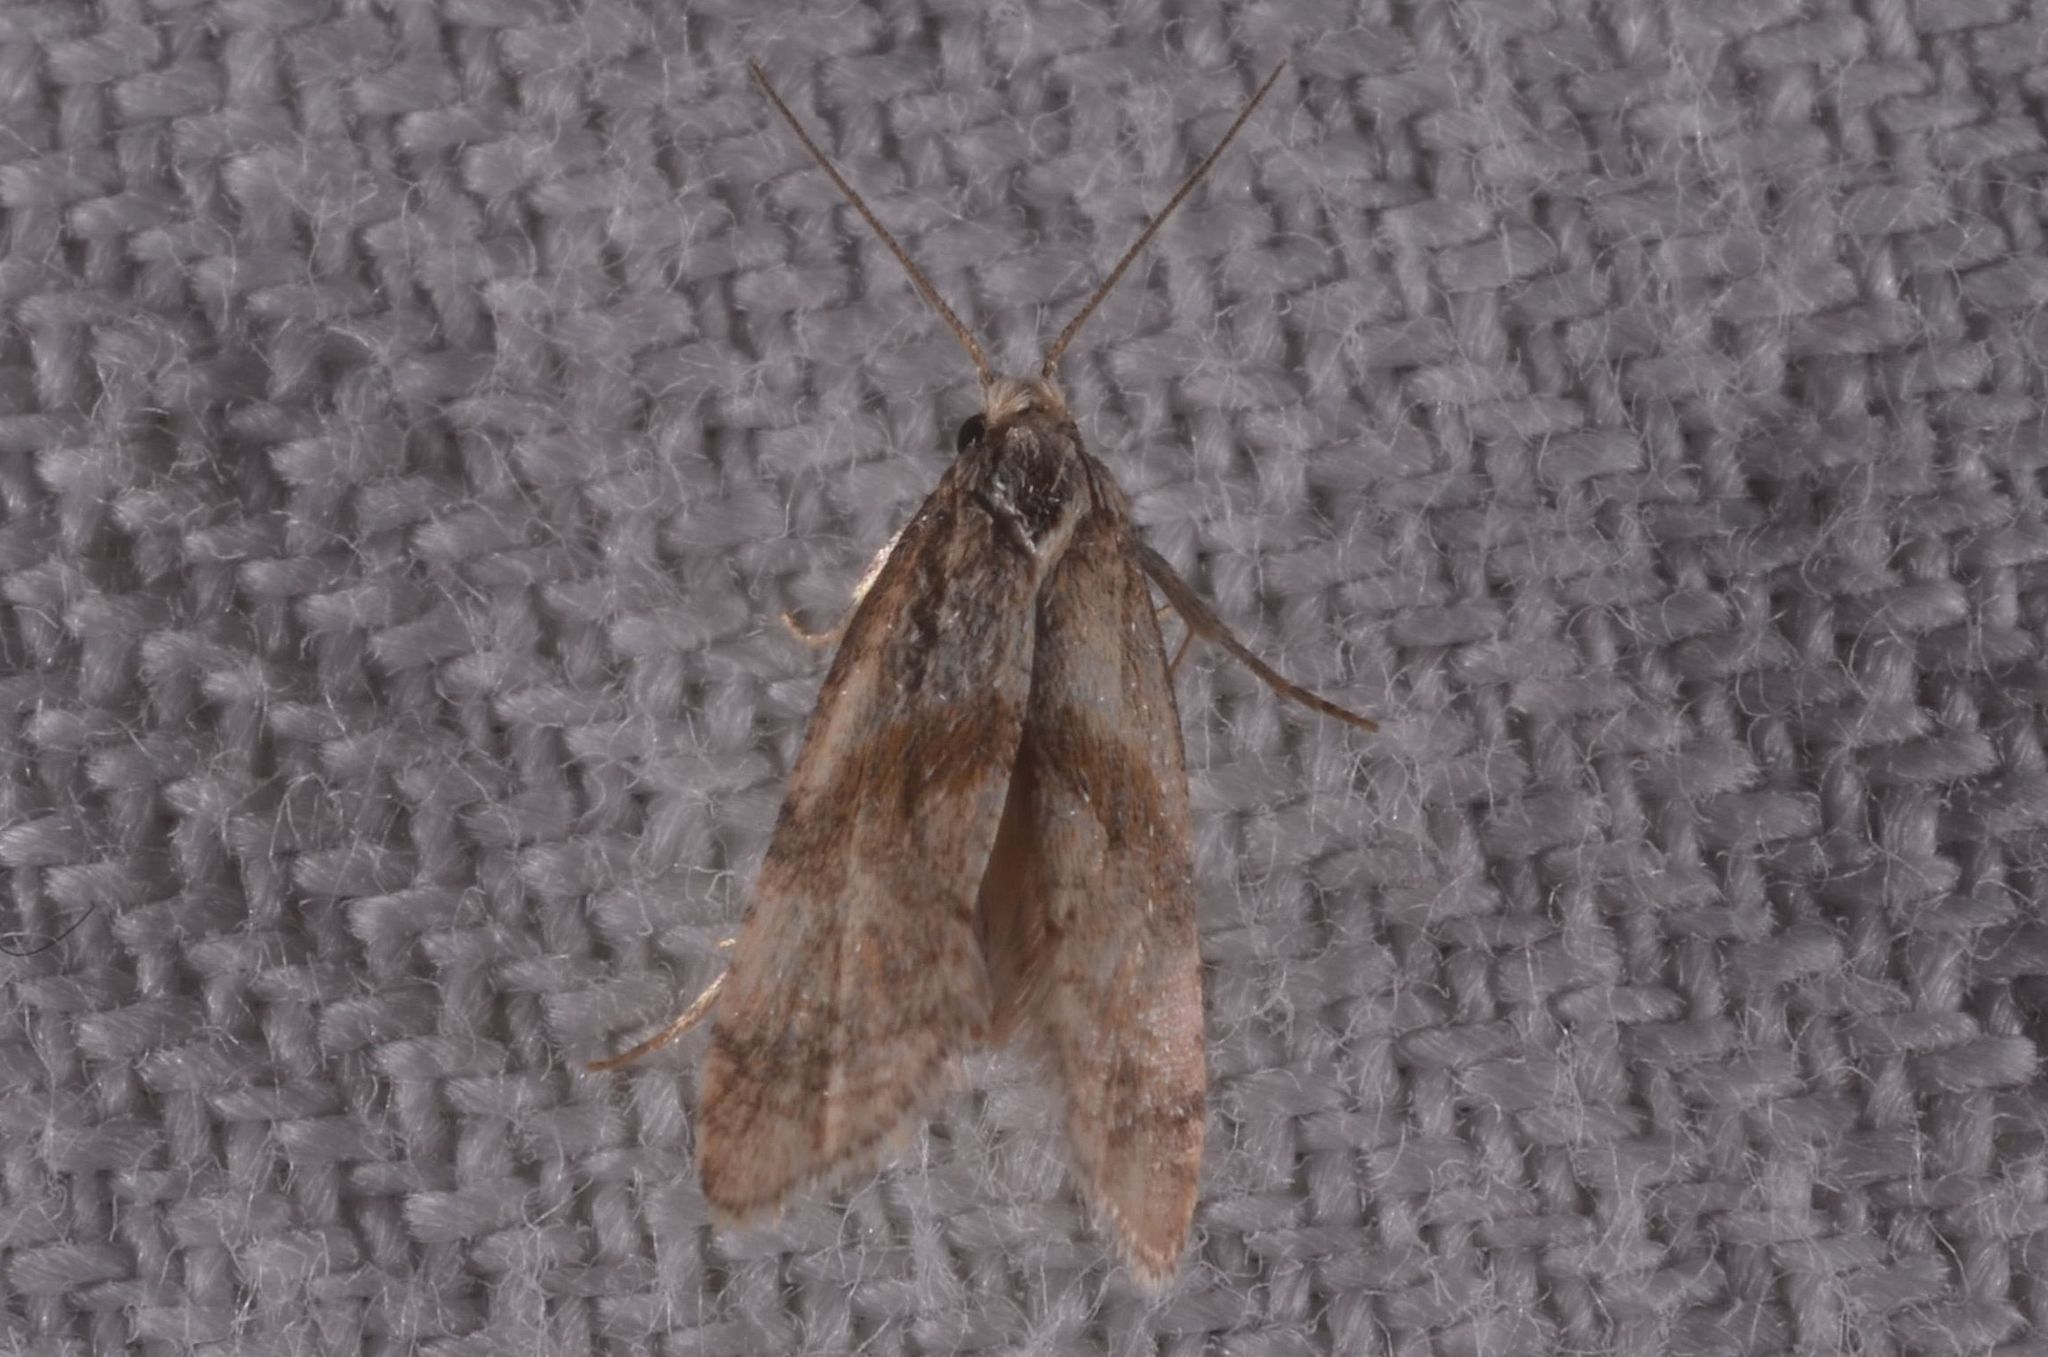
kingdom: Animalia
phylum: Arthropoda
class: Insecta
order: Lepidoptera
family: Tortricidae
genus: Cochylidia
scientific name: Cochylidia implicitana
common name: Chamomile conch
